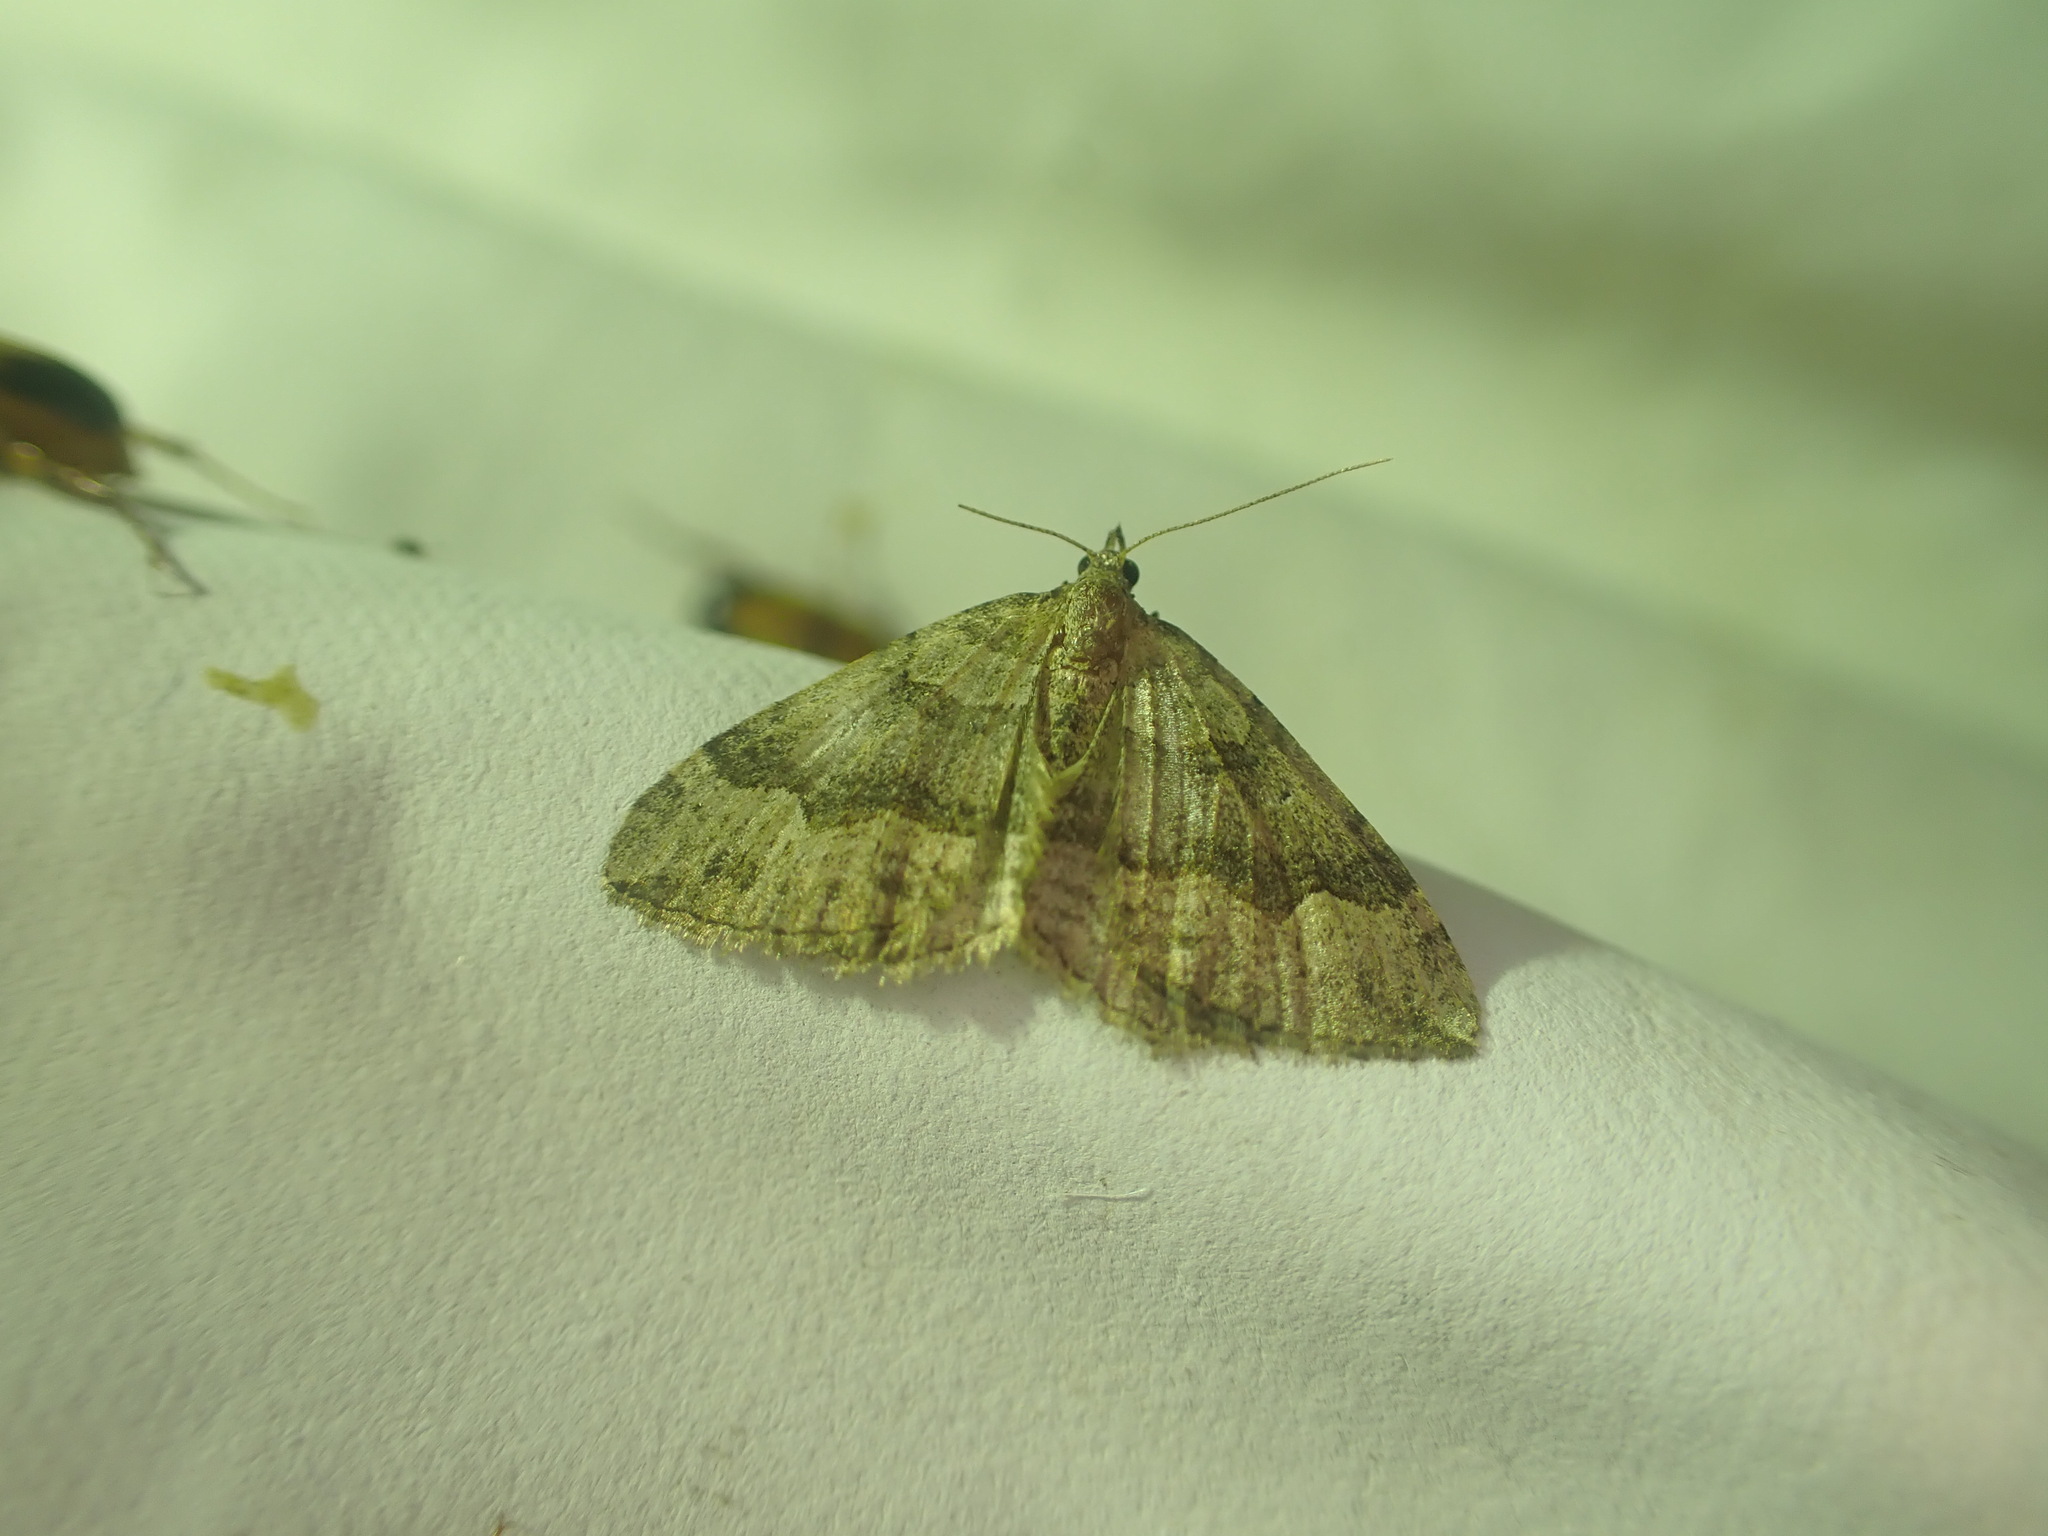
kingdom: Animalia
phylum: Arthropoda
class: Insecta
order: Lepidoptera
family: Geometridae
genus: Epyaxa
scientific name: Epyaxa rosearia
